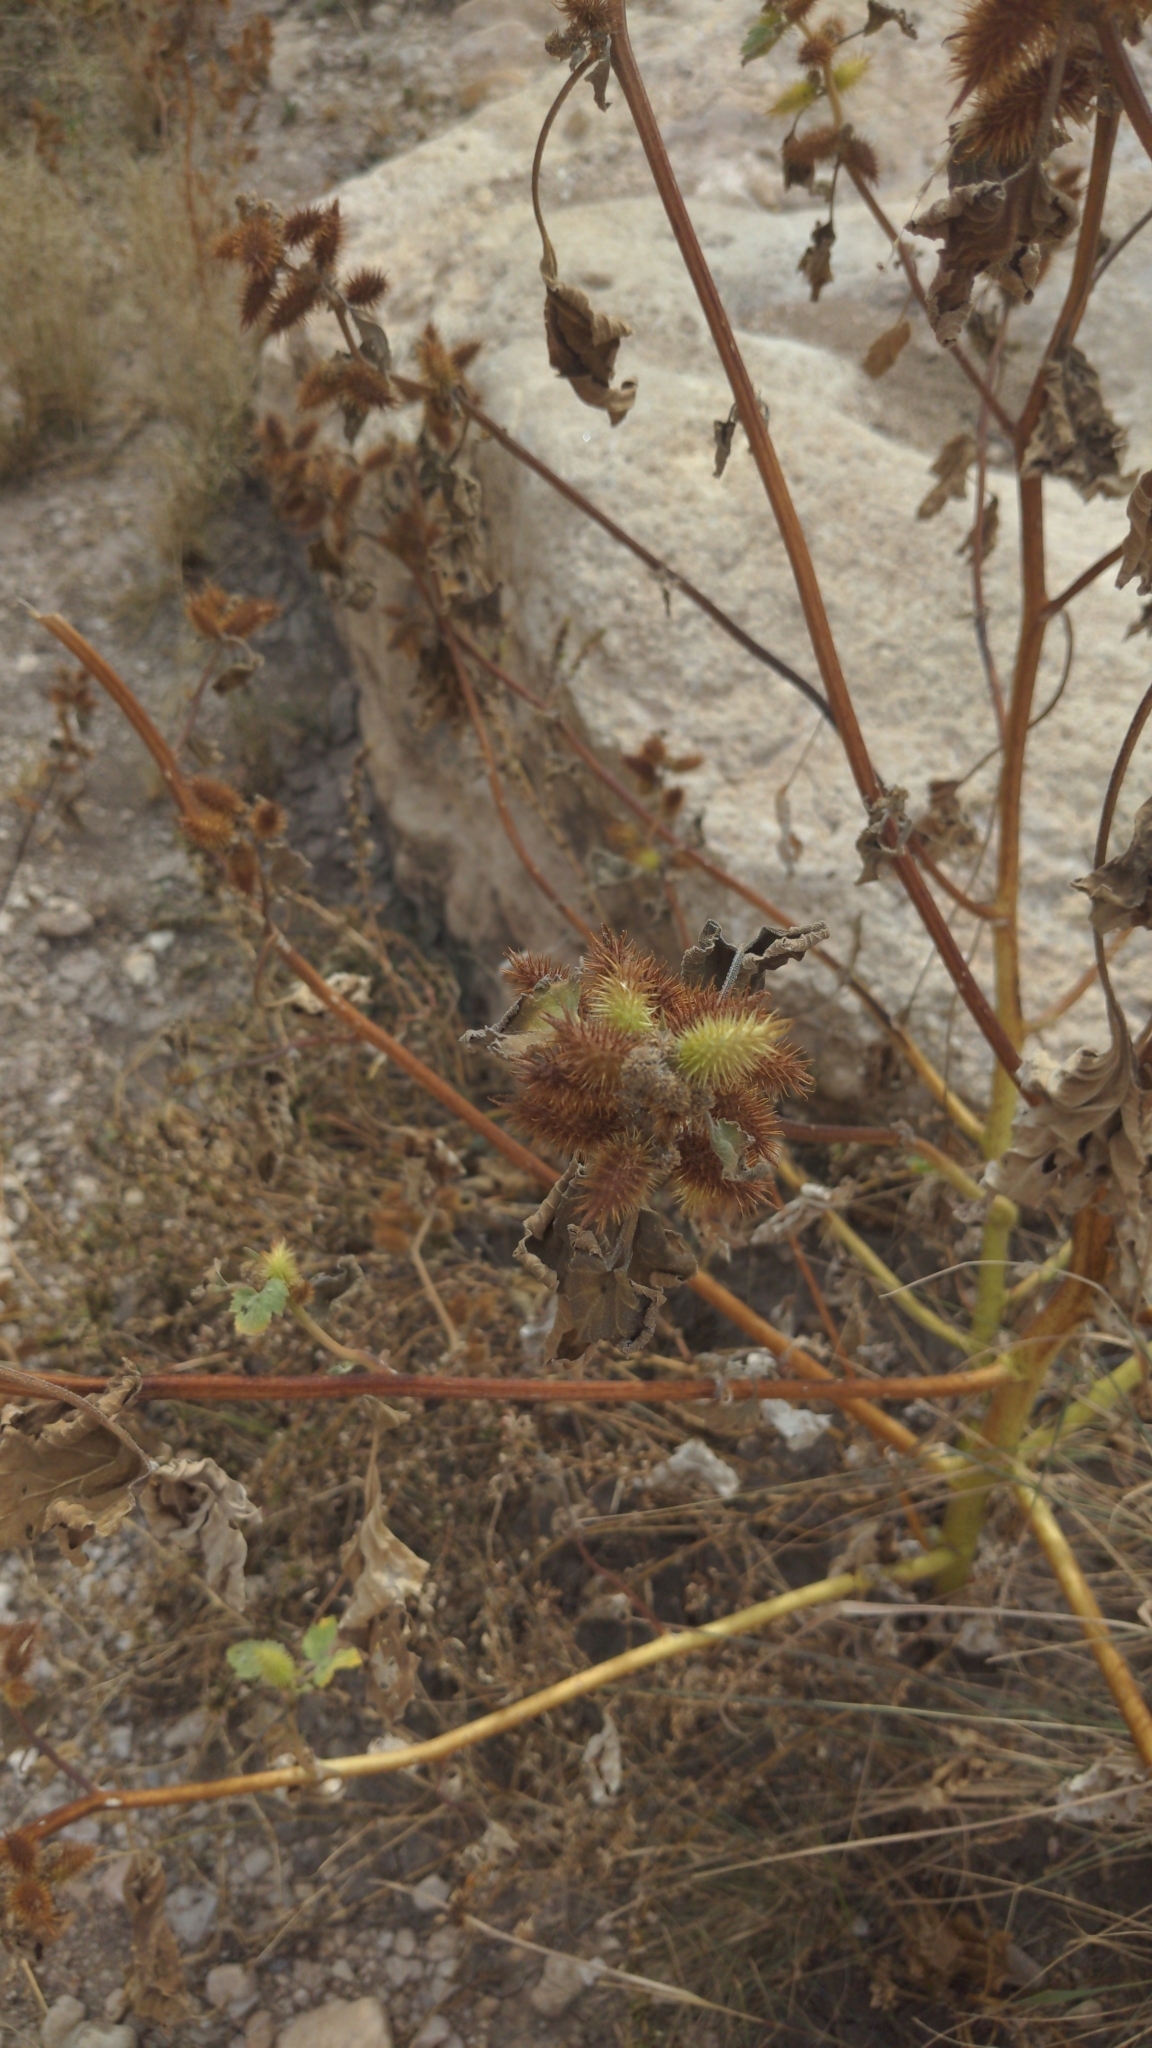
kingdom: Plantae
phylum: Tracheophyta
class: Magnoliopsida
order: Asterales
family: Asteraceae
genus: Xanthium
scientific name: Xanthium strumarium
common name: Rough cocklebur
